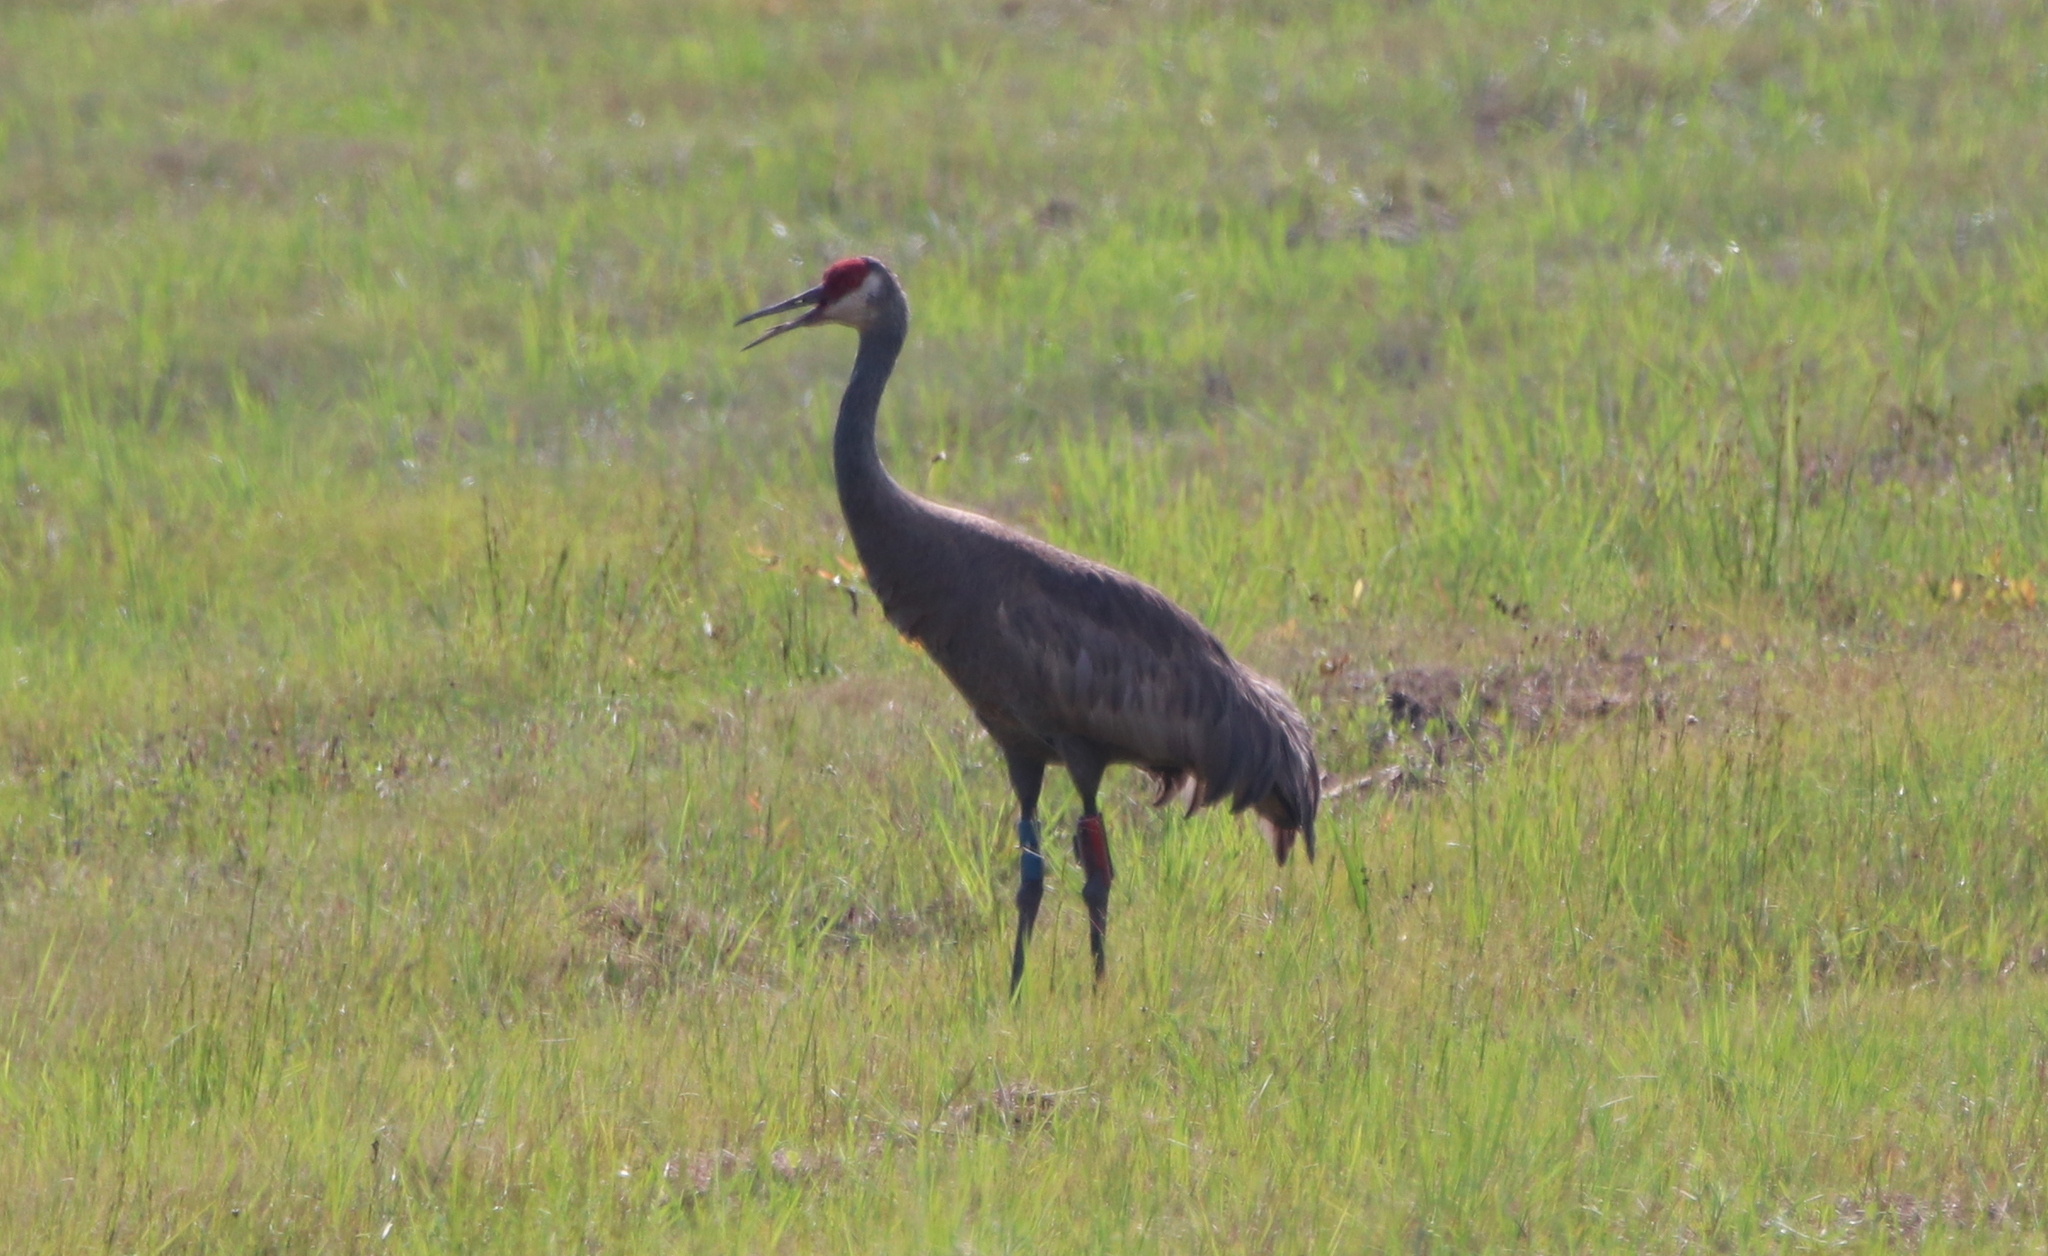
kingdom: Animalia
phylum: Chordata
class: Aves
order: Gruiformes
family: Gruidae
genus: Grus
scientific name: Grus canadensis
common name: Sandhill crane
